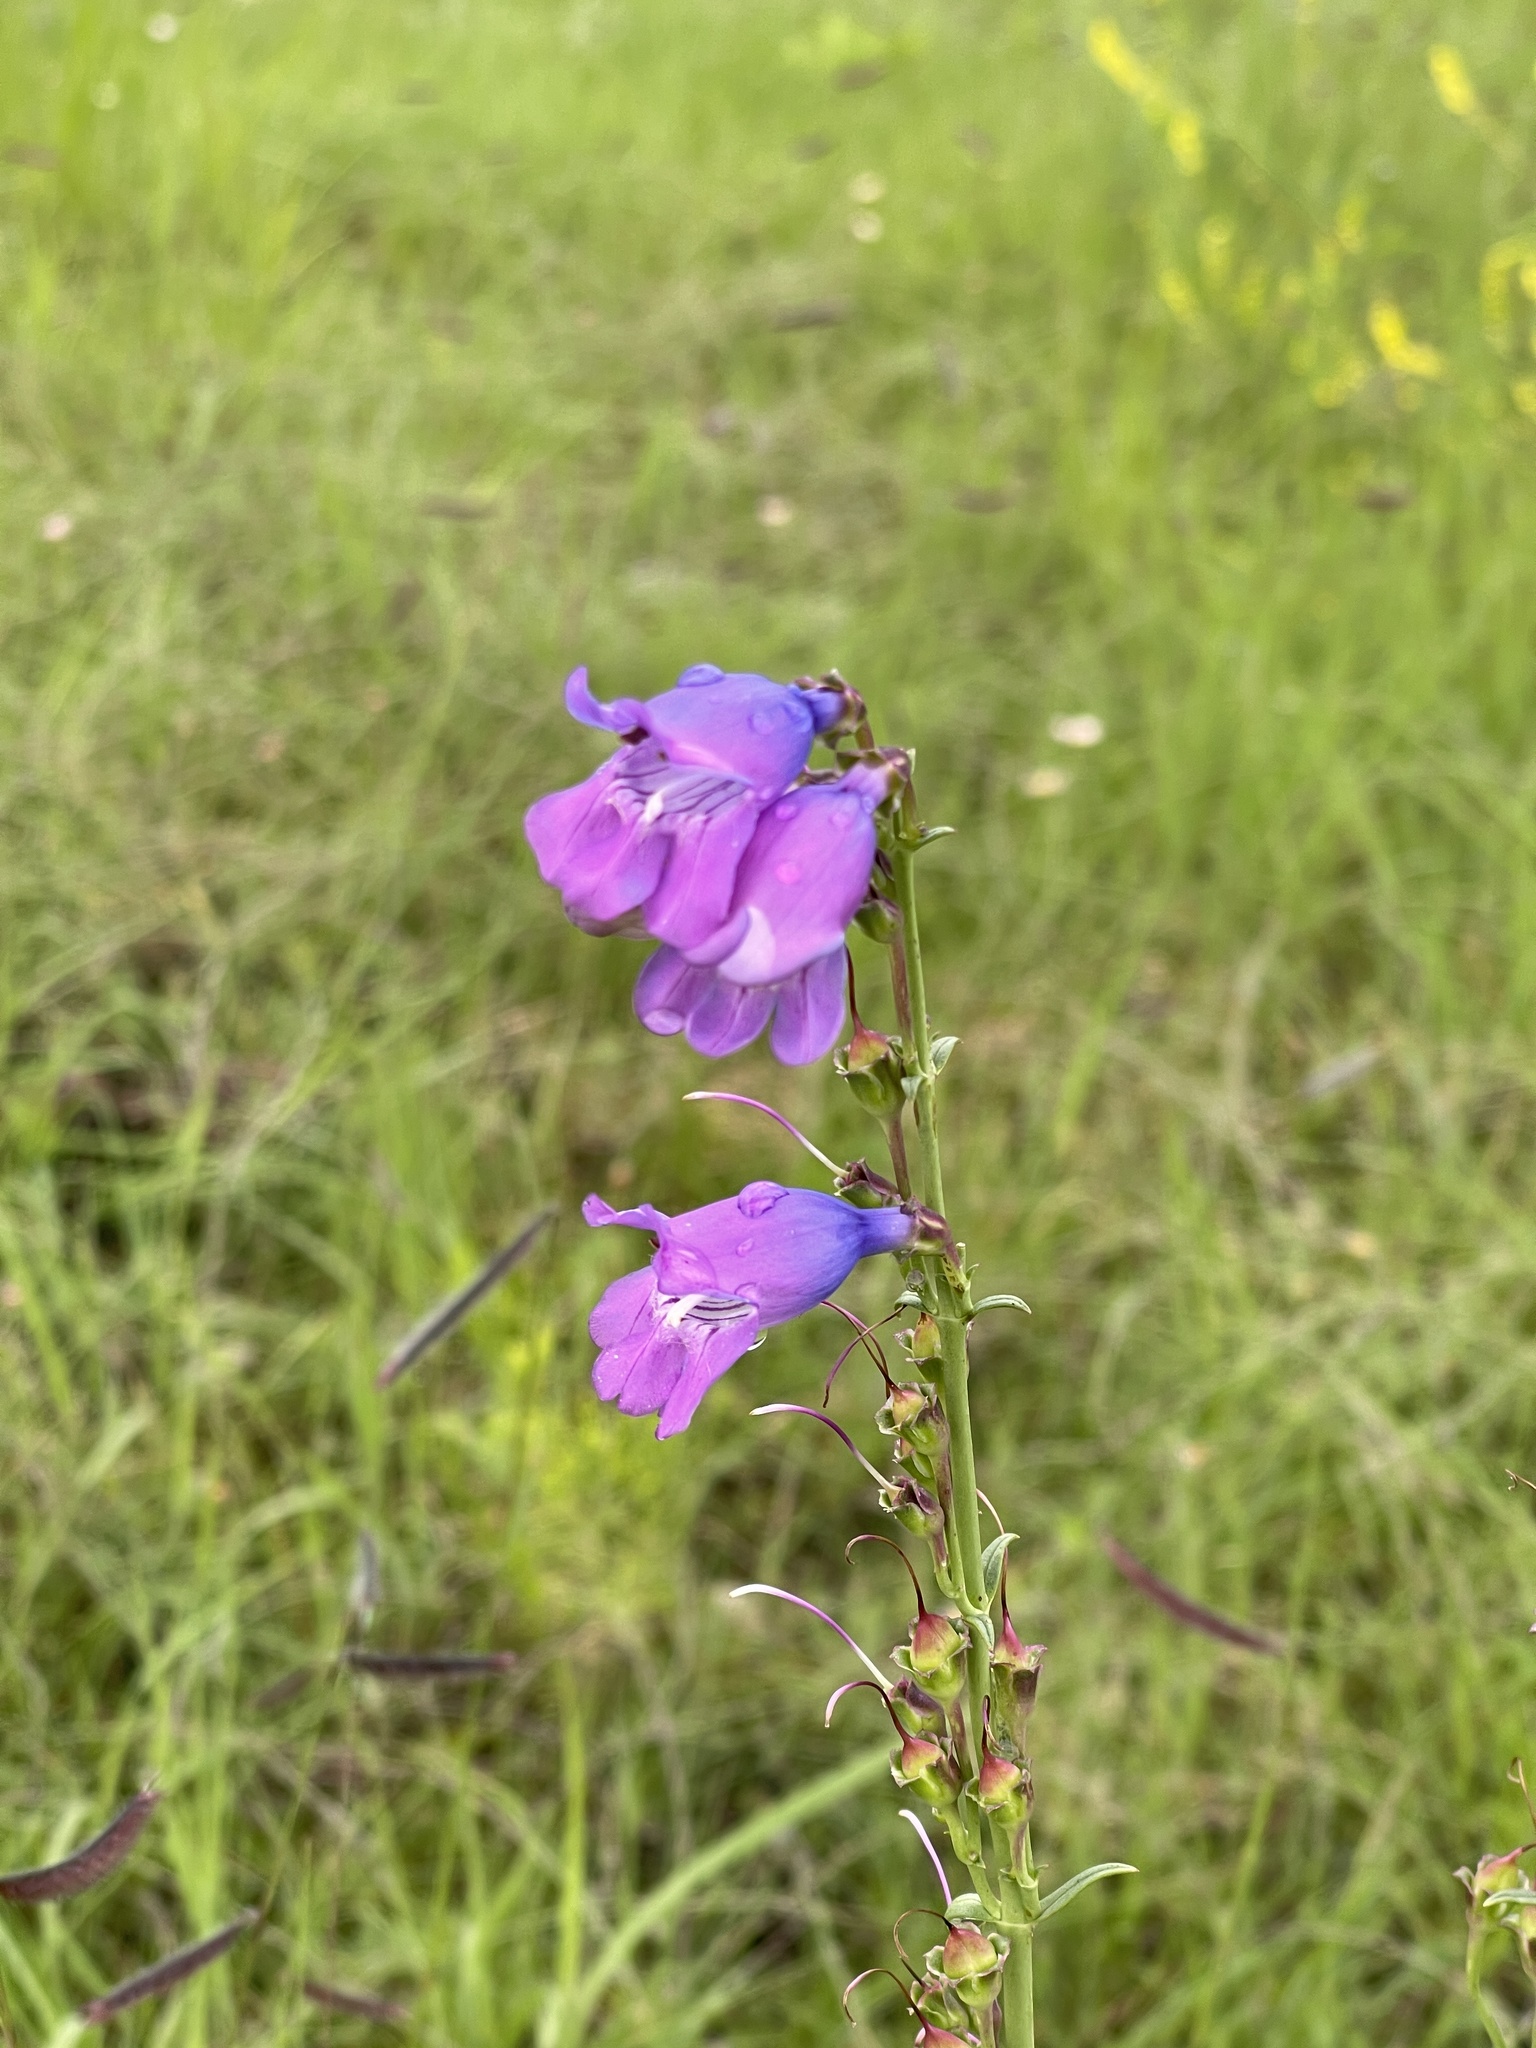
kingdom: Plantae
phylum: Tracheophyta
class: Magnoliopsida
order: Lamiales
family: Plantaginaceae
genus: Penstemon
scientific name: Penstemon neomexicanus
